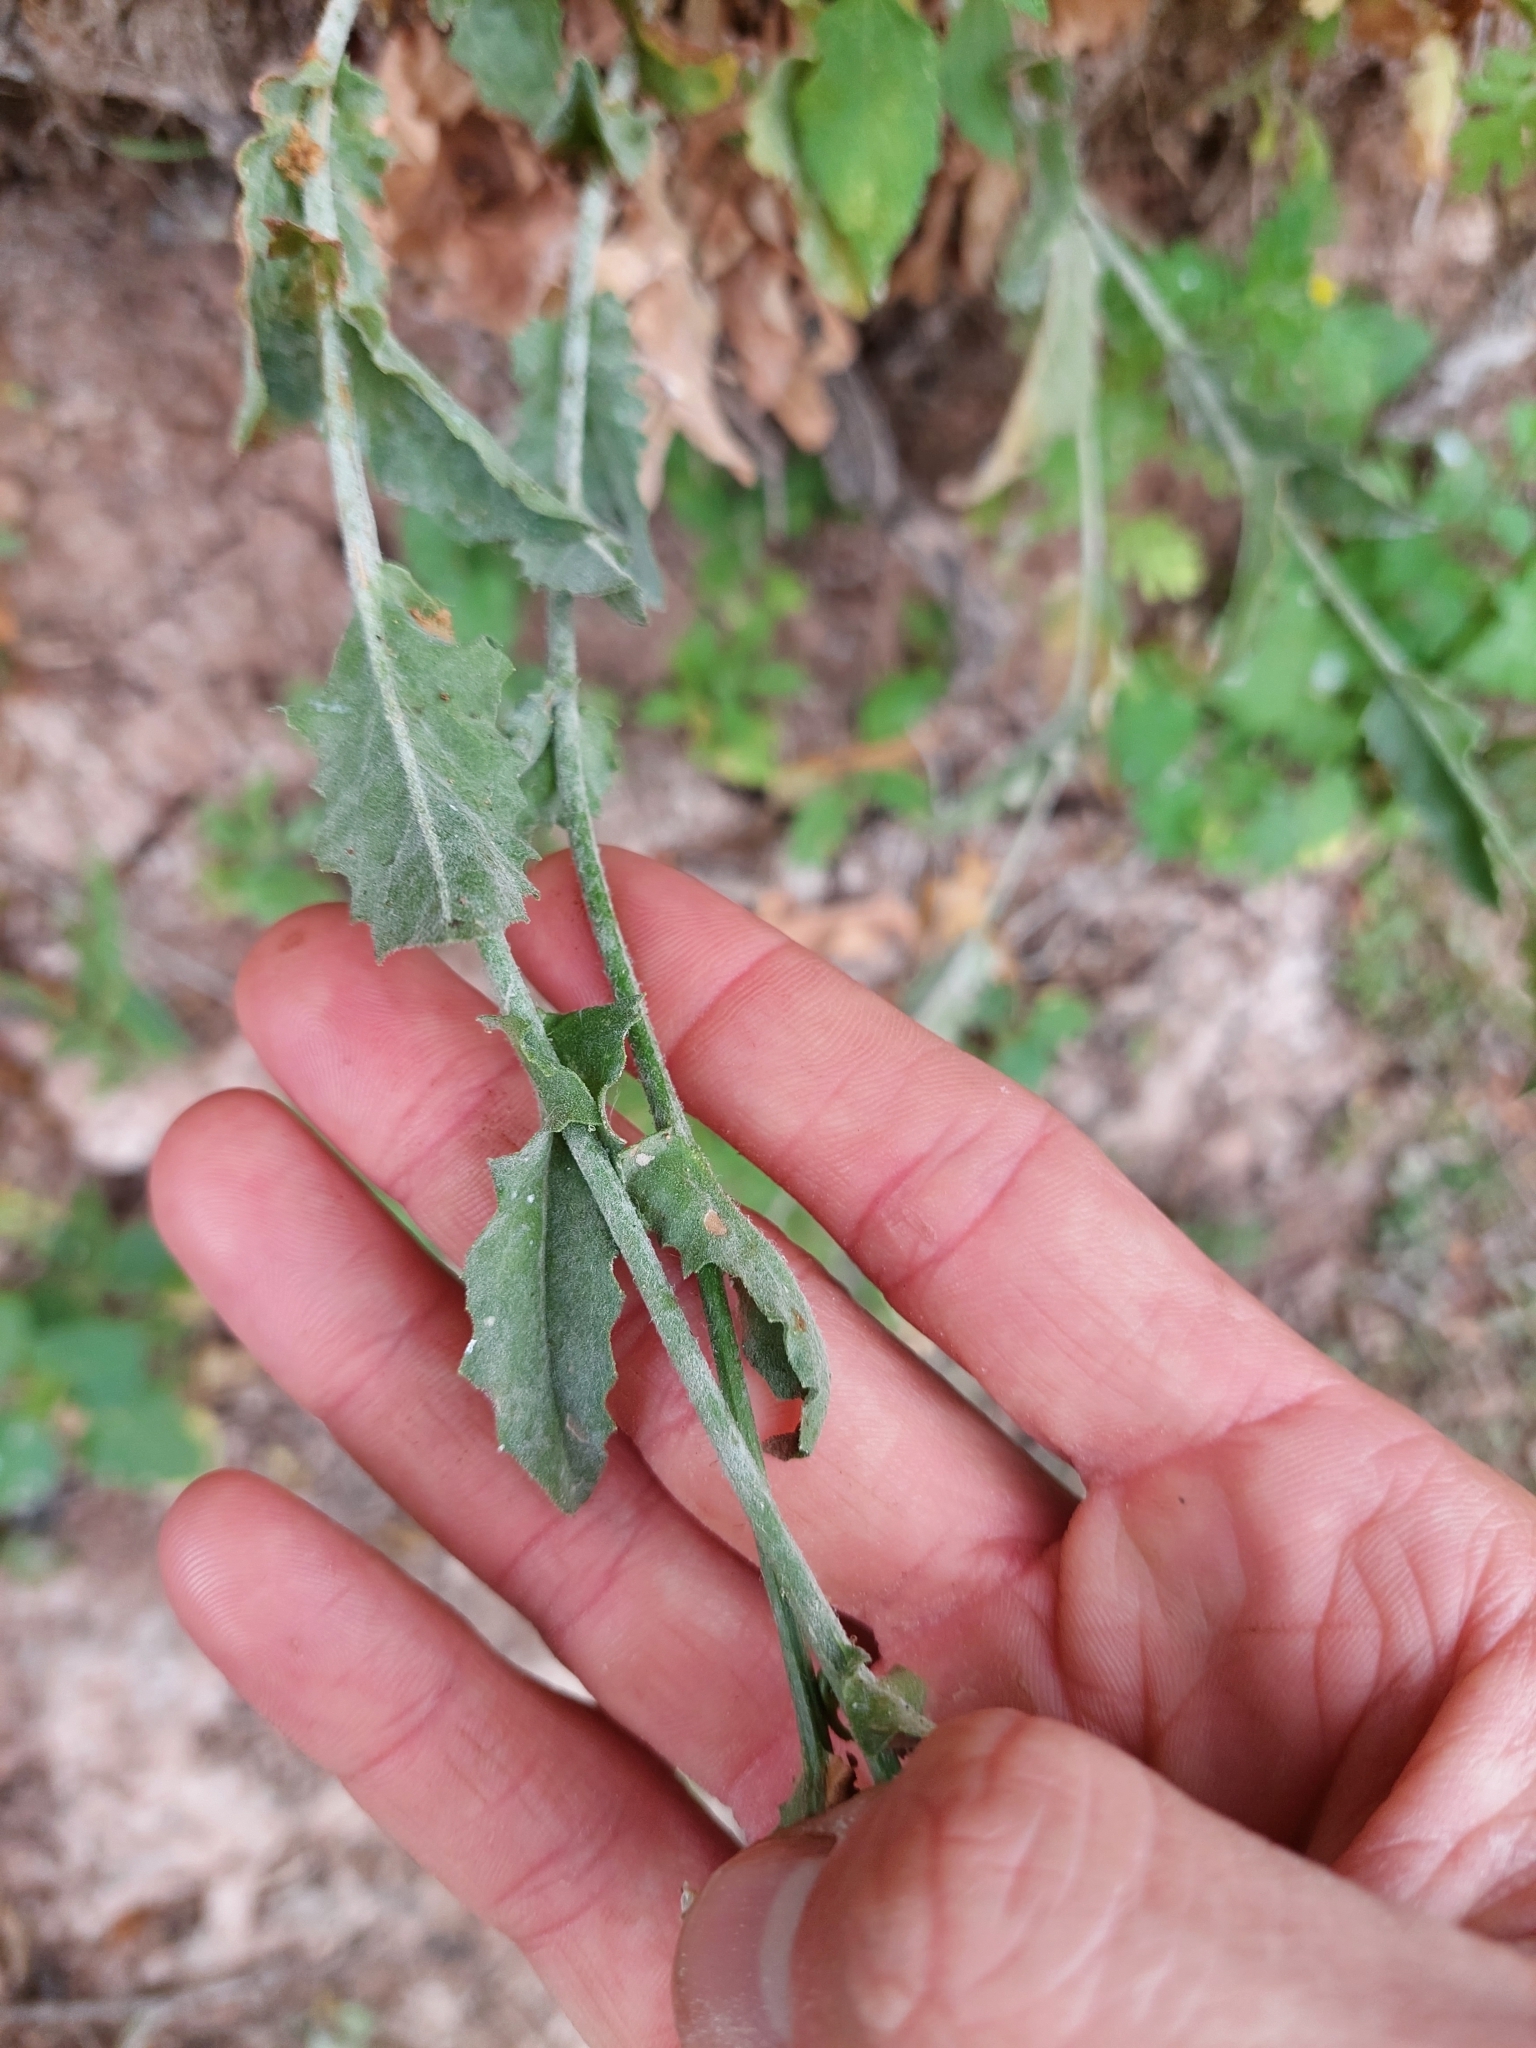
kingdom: Plantae
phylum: Tracheophyta
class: Magnoliopsida
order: Asterales
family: Asteraceae
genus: Holocheilus
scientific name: Holocheilus hieracioides
